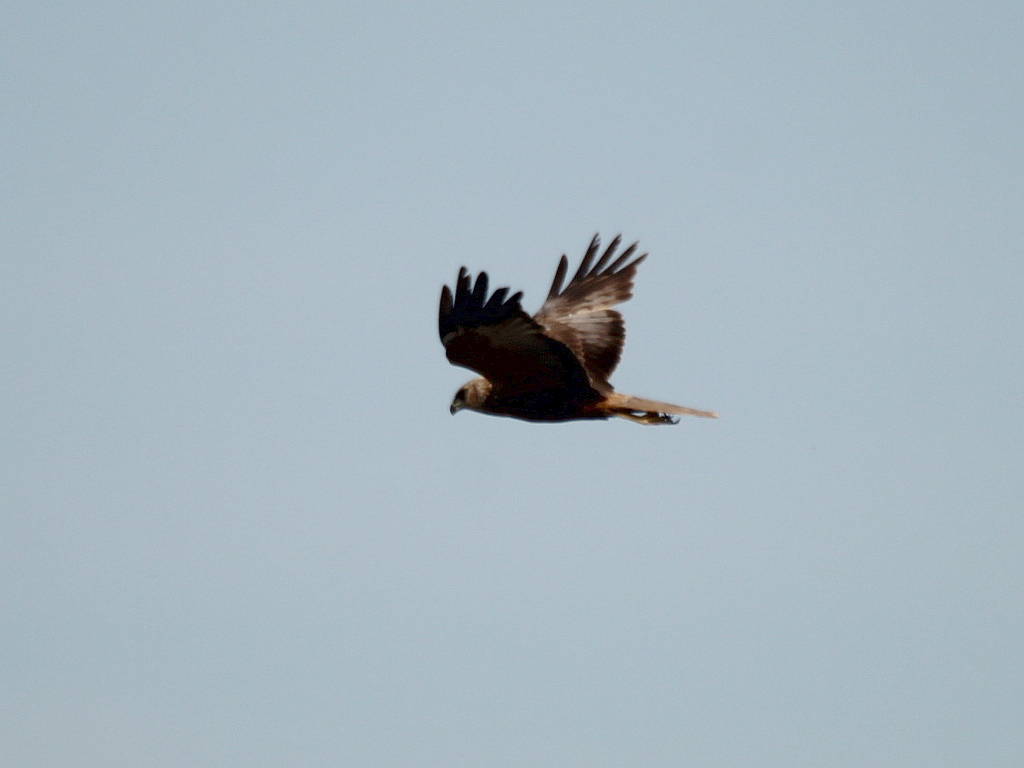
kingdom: Animalia
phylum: Chordata
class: Aves
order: Accipitriformes
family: Accipitridae
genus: Circus
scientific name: Circus aeruginosus
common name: Western marsh harrier
